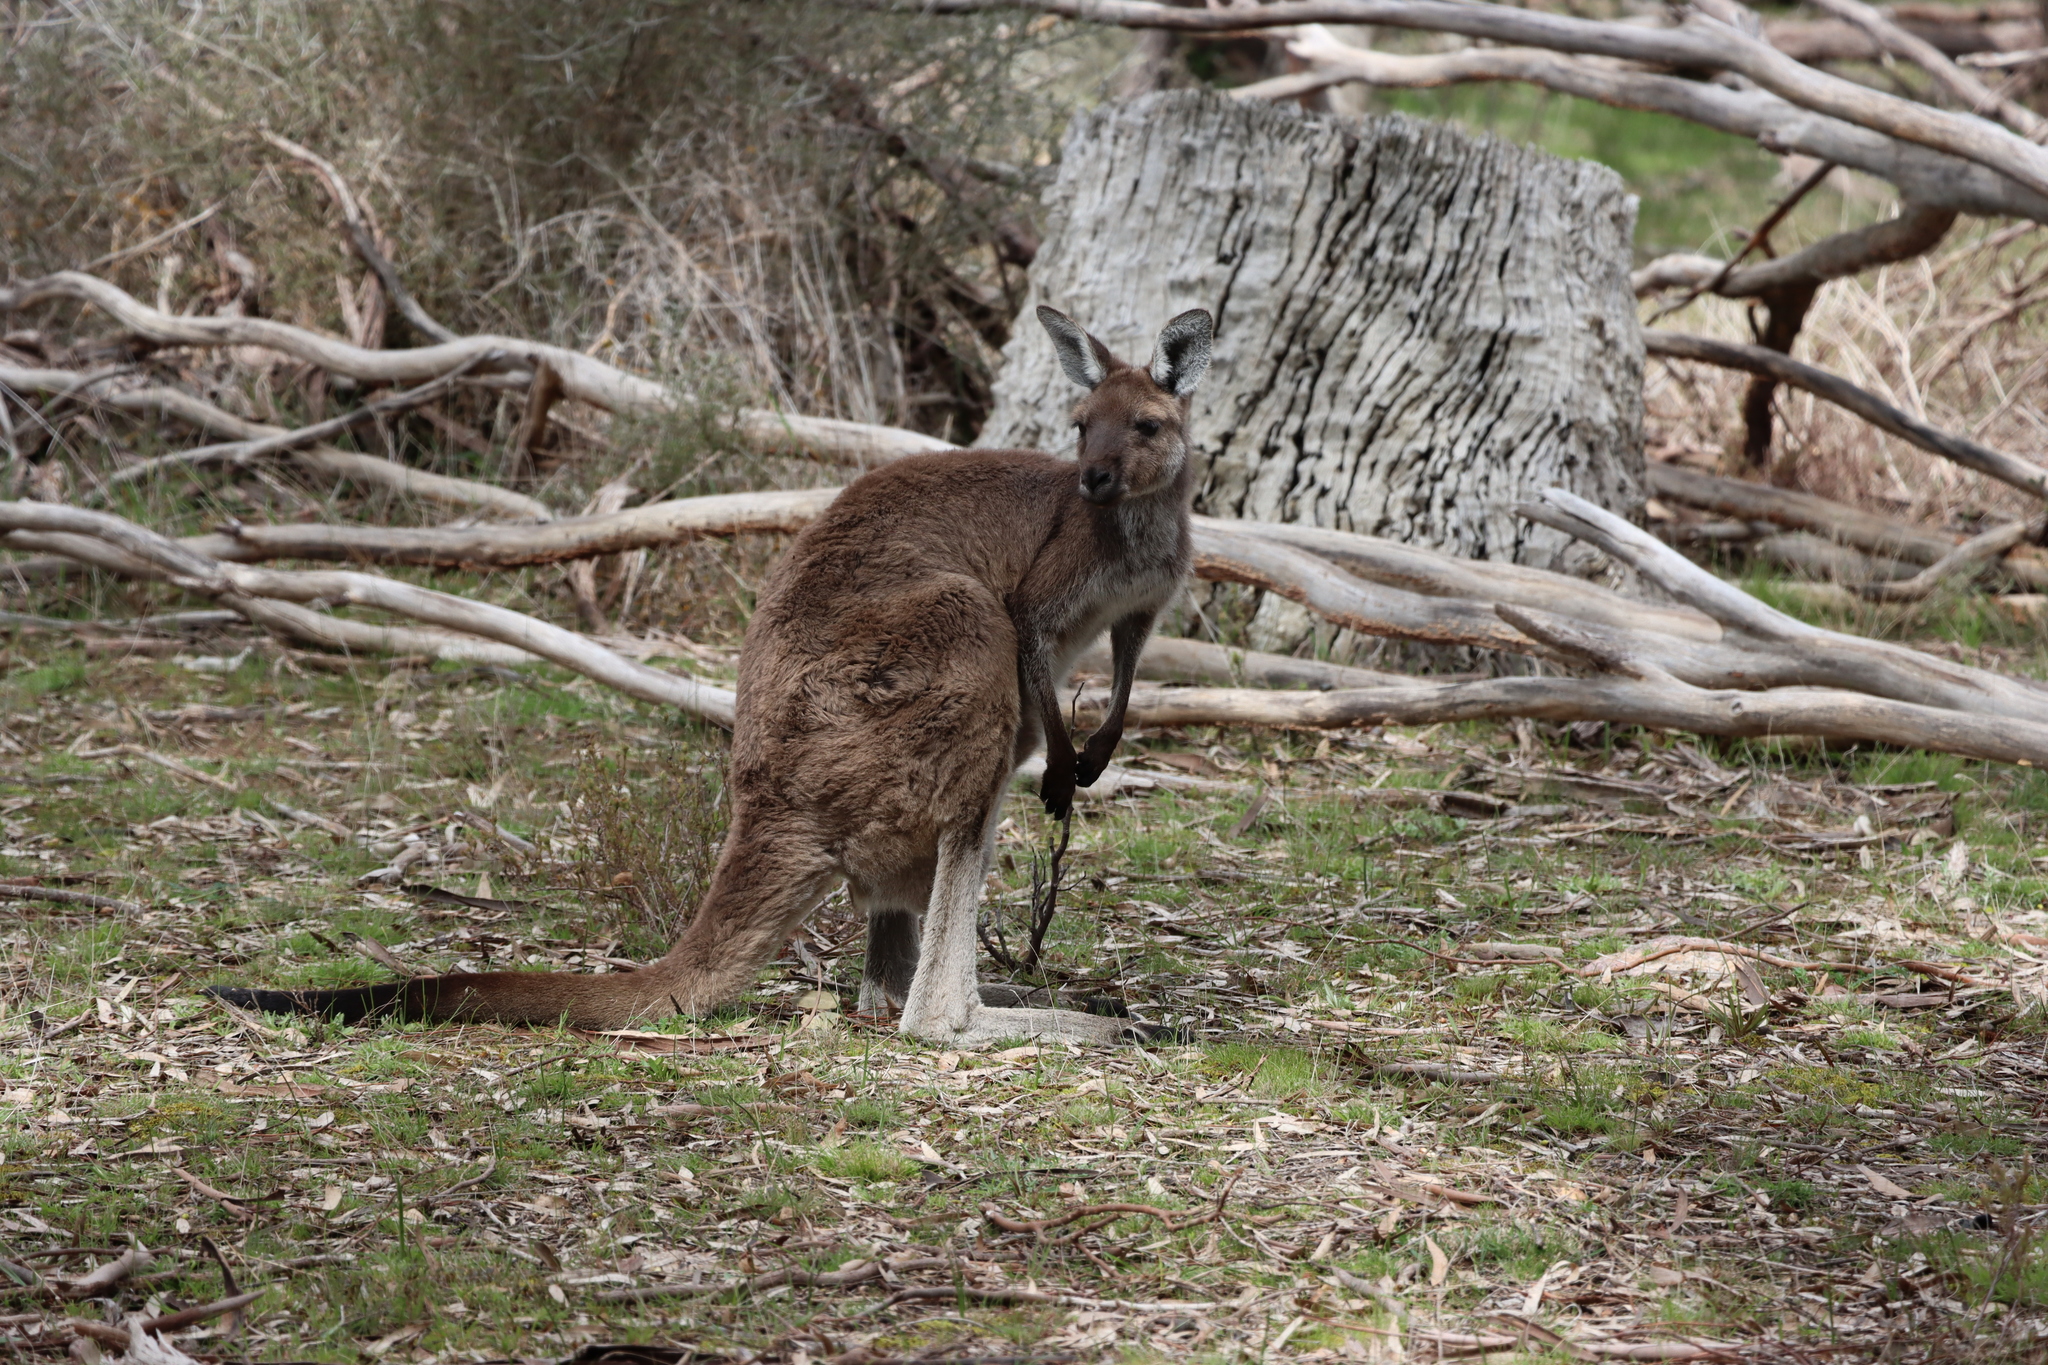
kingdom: Animalia
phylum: Chordata
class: Mammalia
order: Diprotodontia
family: Macropodidae
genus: Macropus
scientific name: Macropus fuliginosus
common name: Western grey kangaroo
